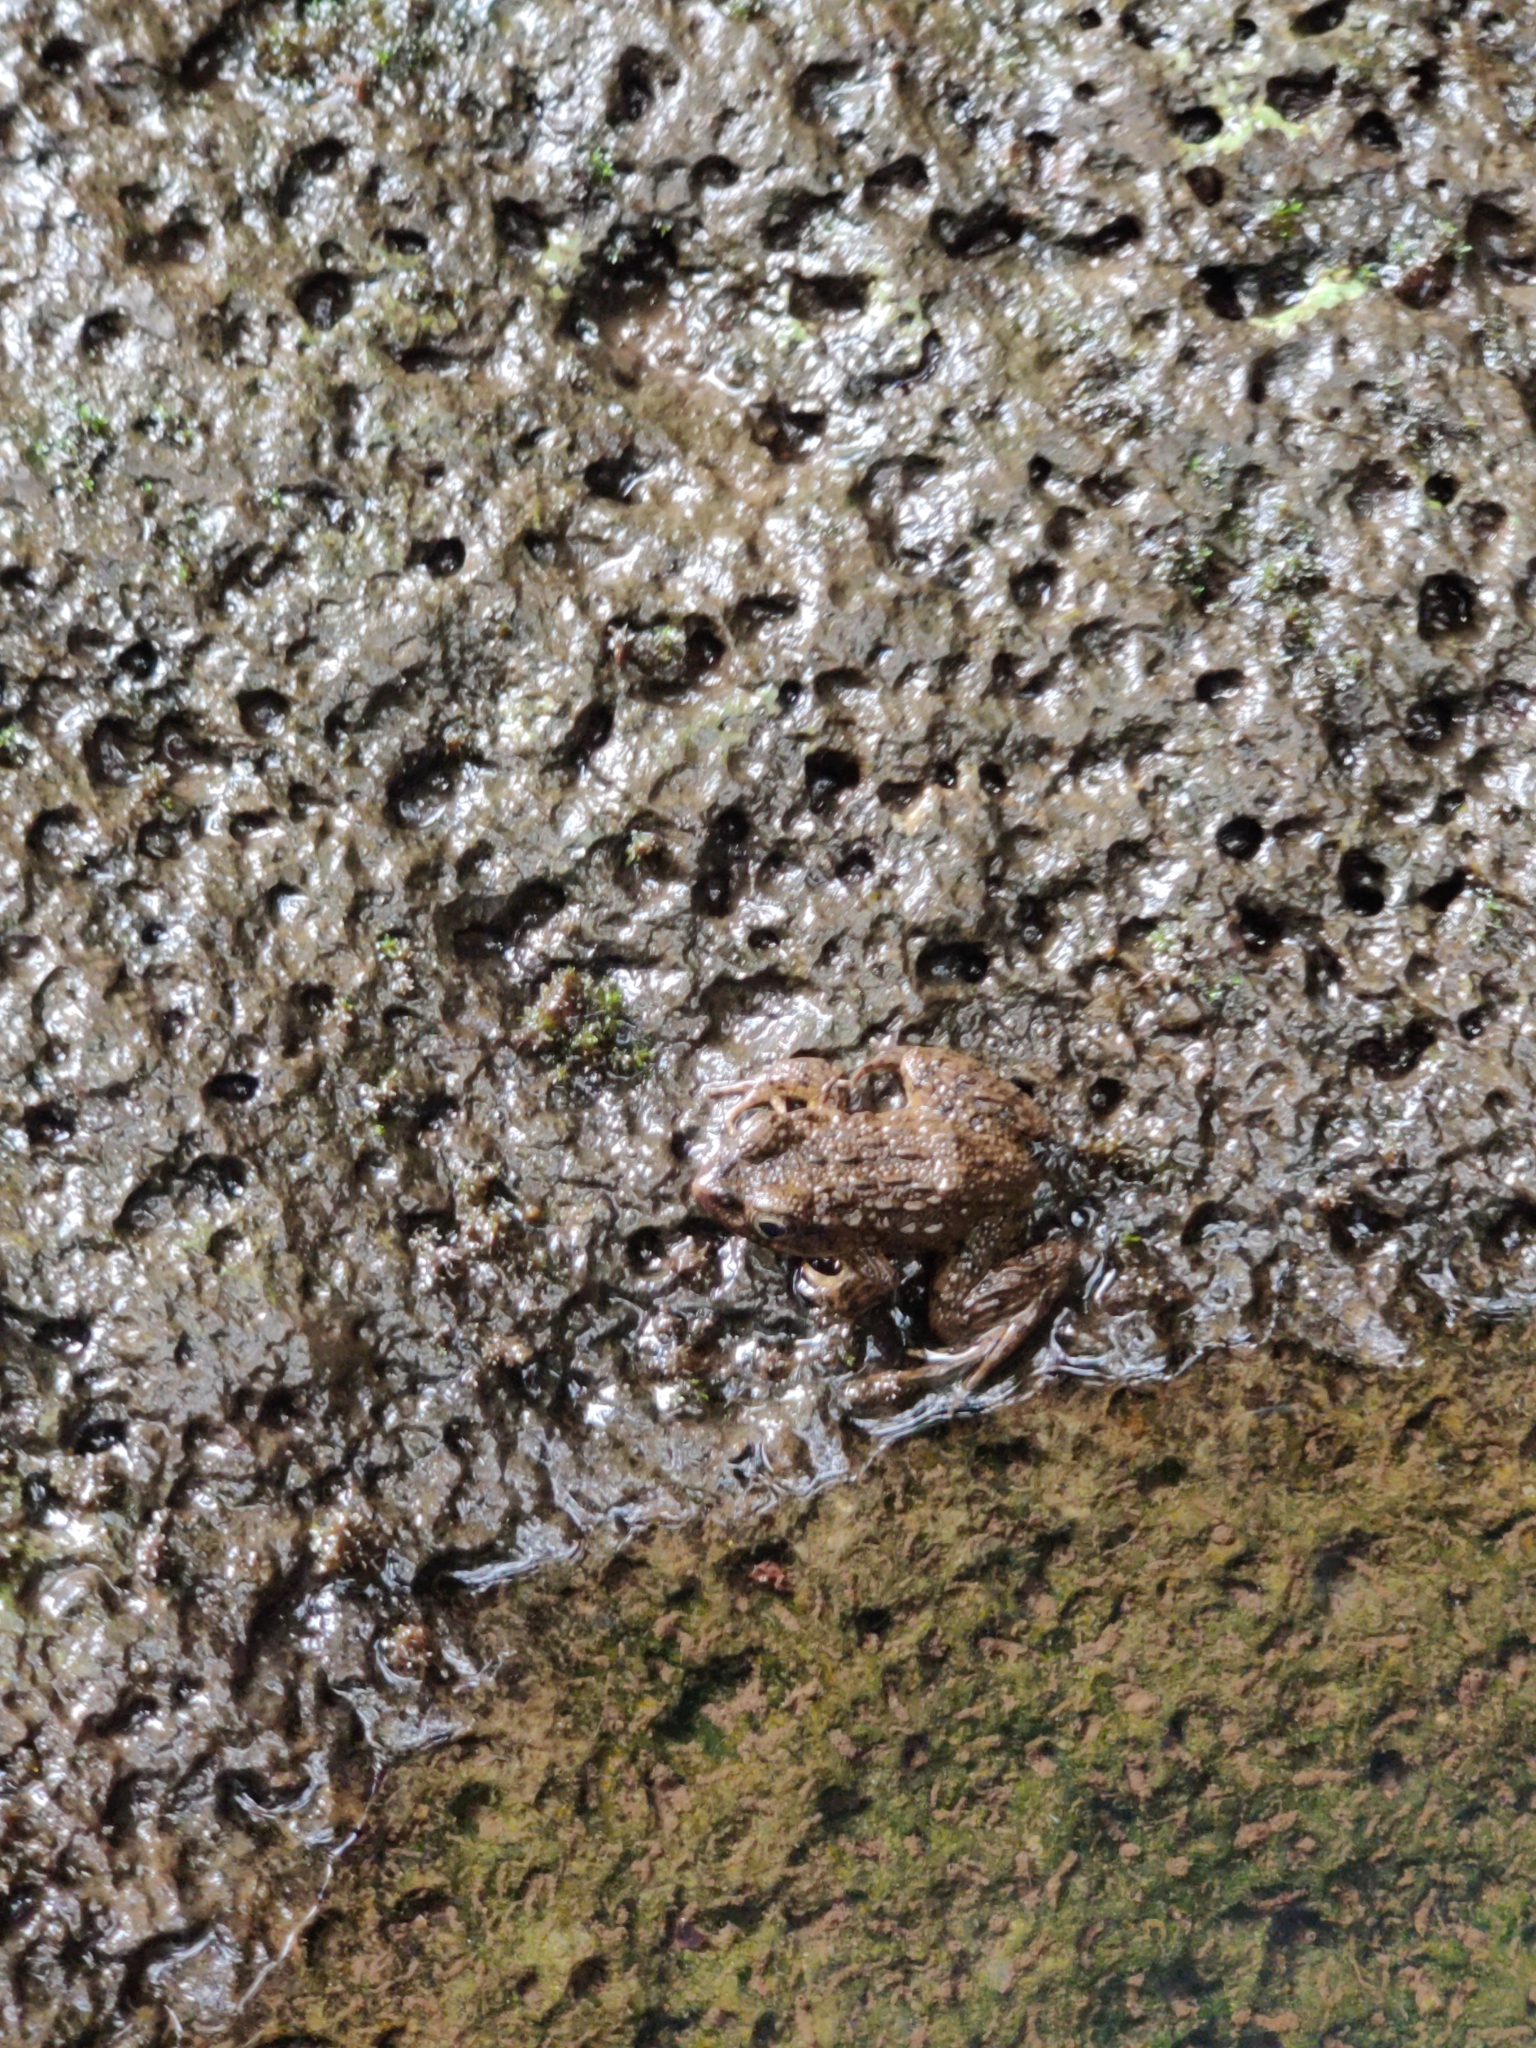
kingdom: Animalia
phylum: Chordata
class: Amphibia
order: Anura
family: Ranidae
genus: Glandirana
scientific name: Glandirana rugosa
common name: Japanese wrinkled frog
